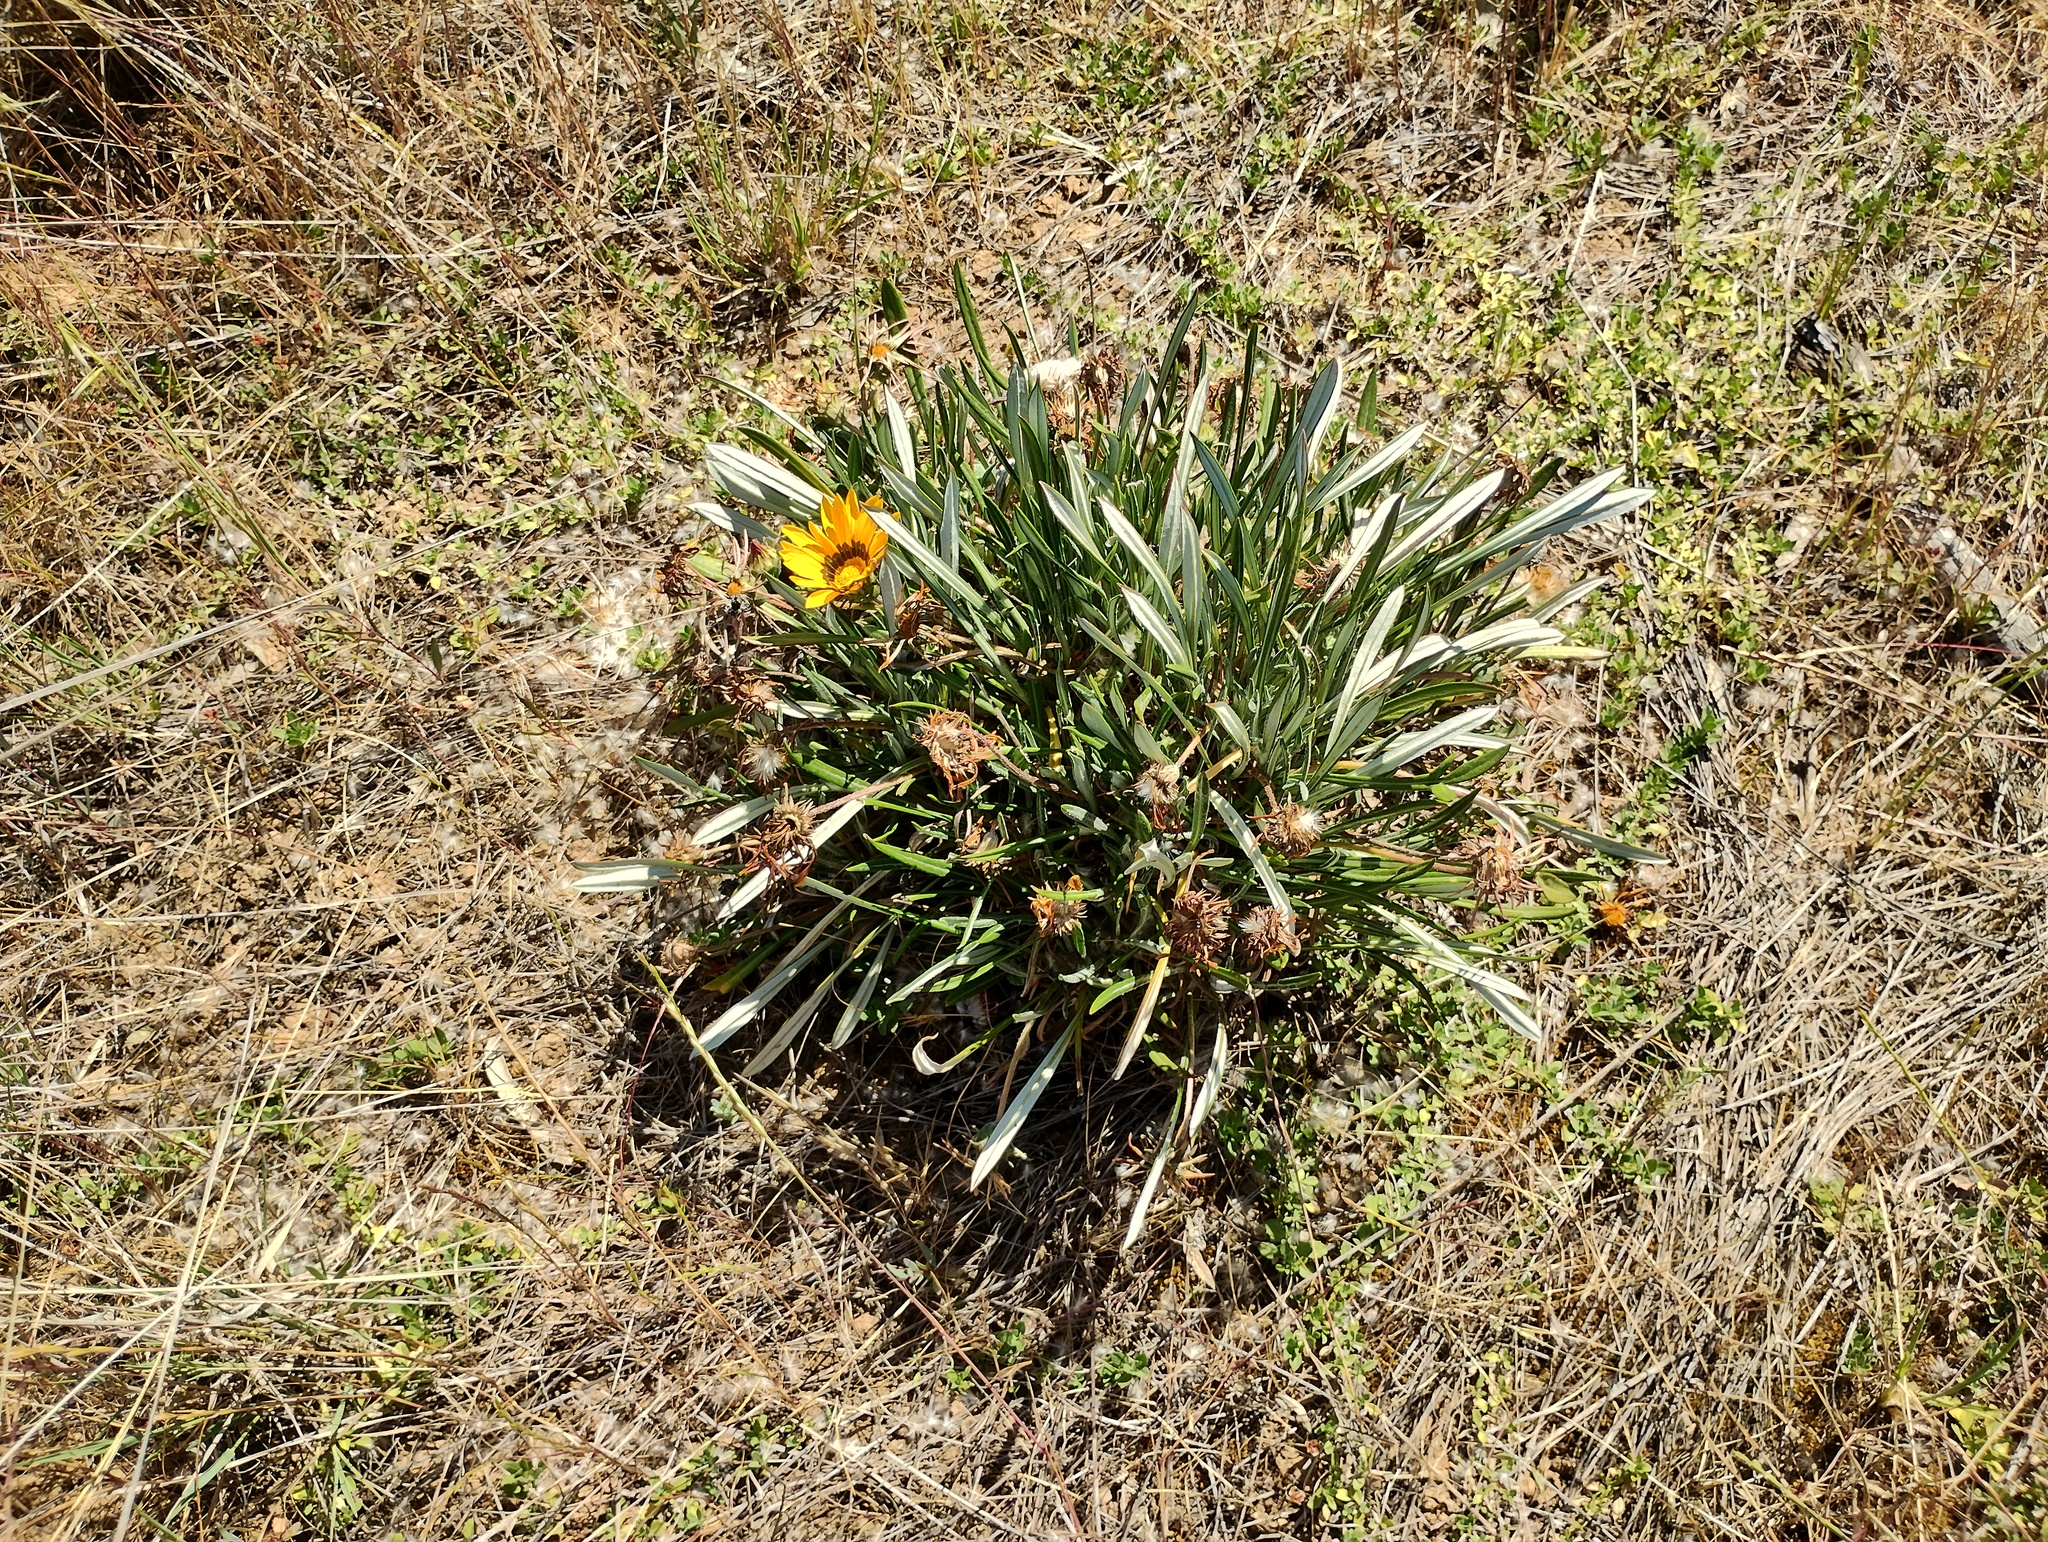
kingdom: Plantae
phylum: Tracheophyta
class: Magnoliopsida
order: Asterales
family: Asteraceae
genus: Gazania
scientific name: Gazania splendens
